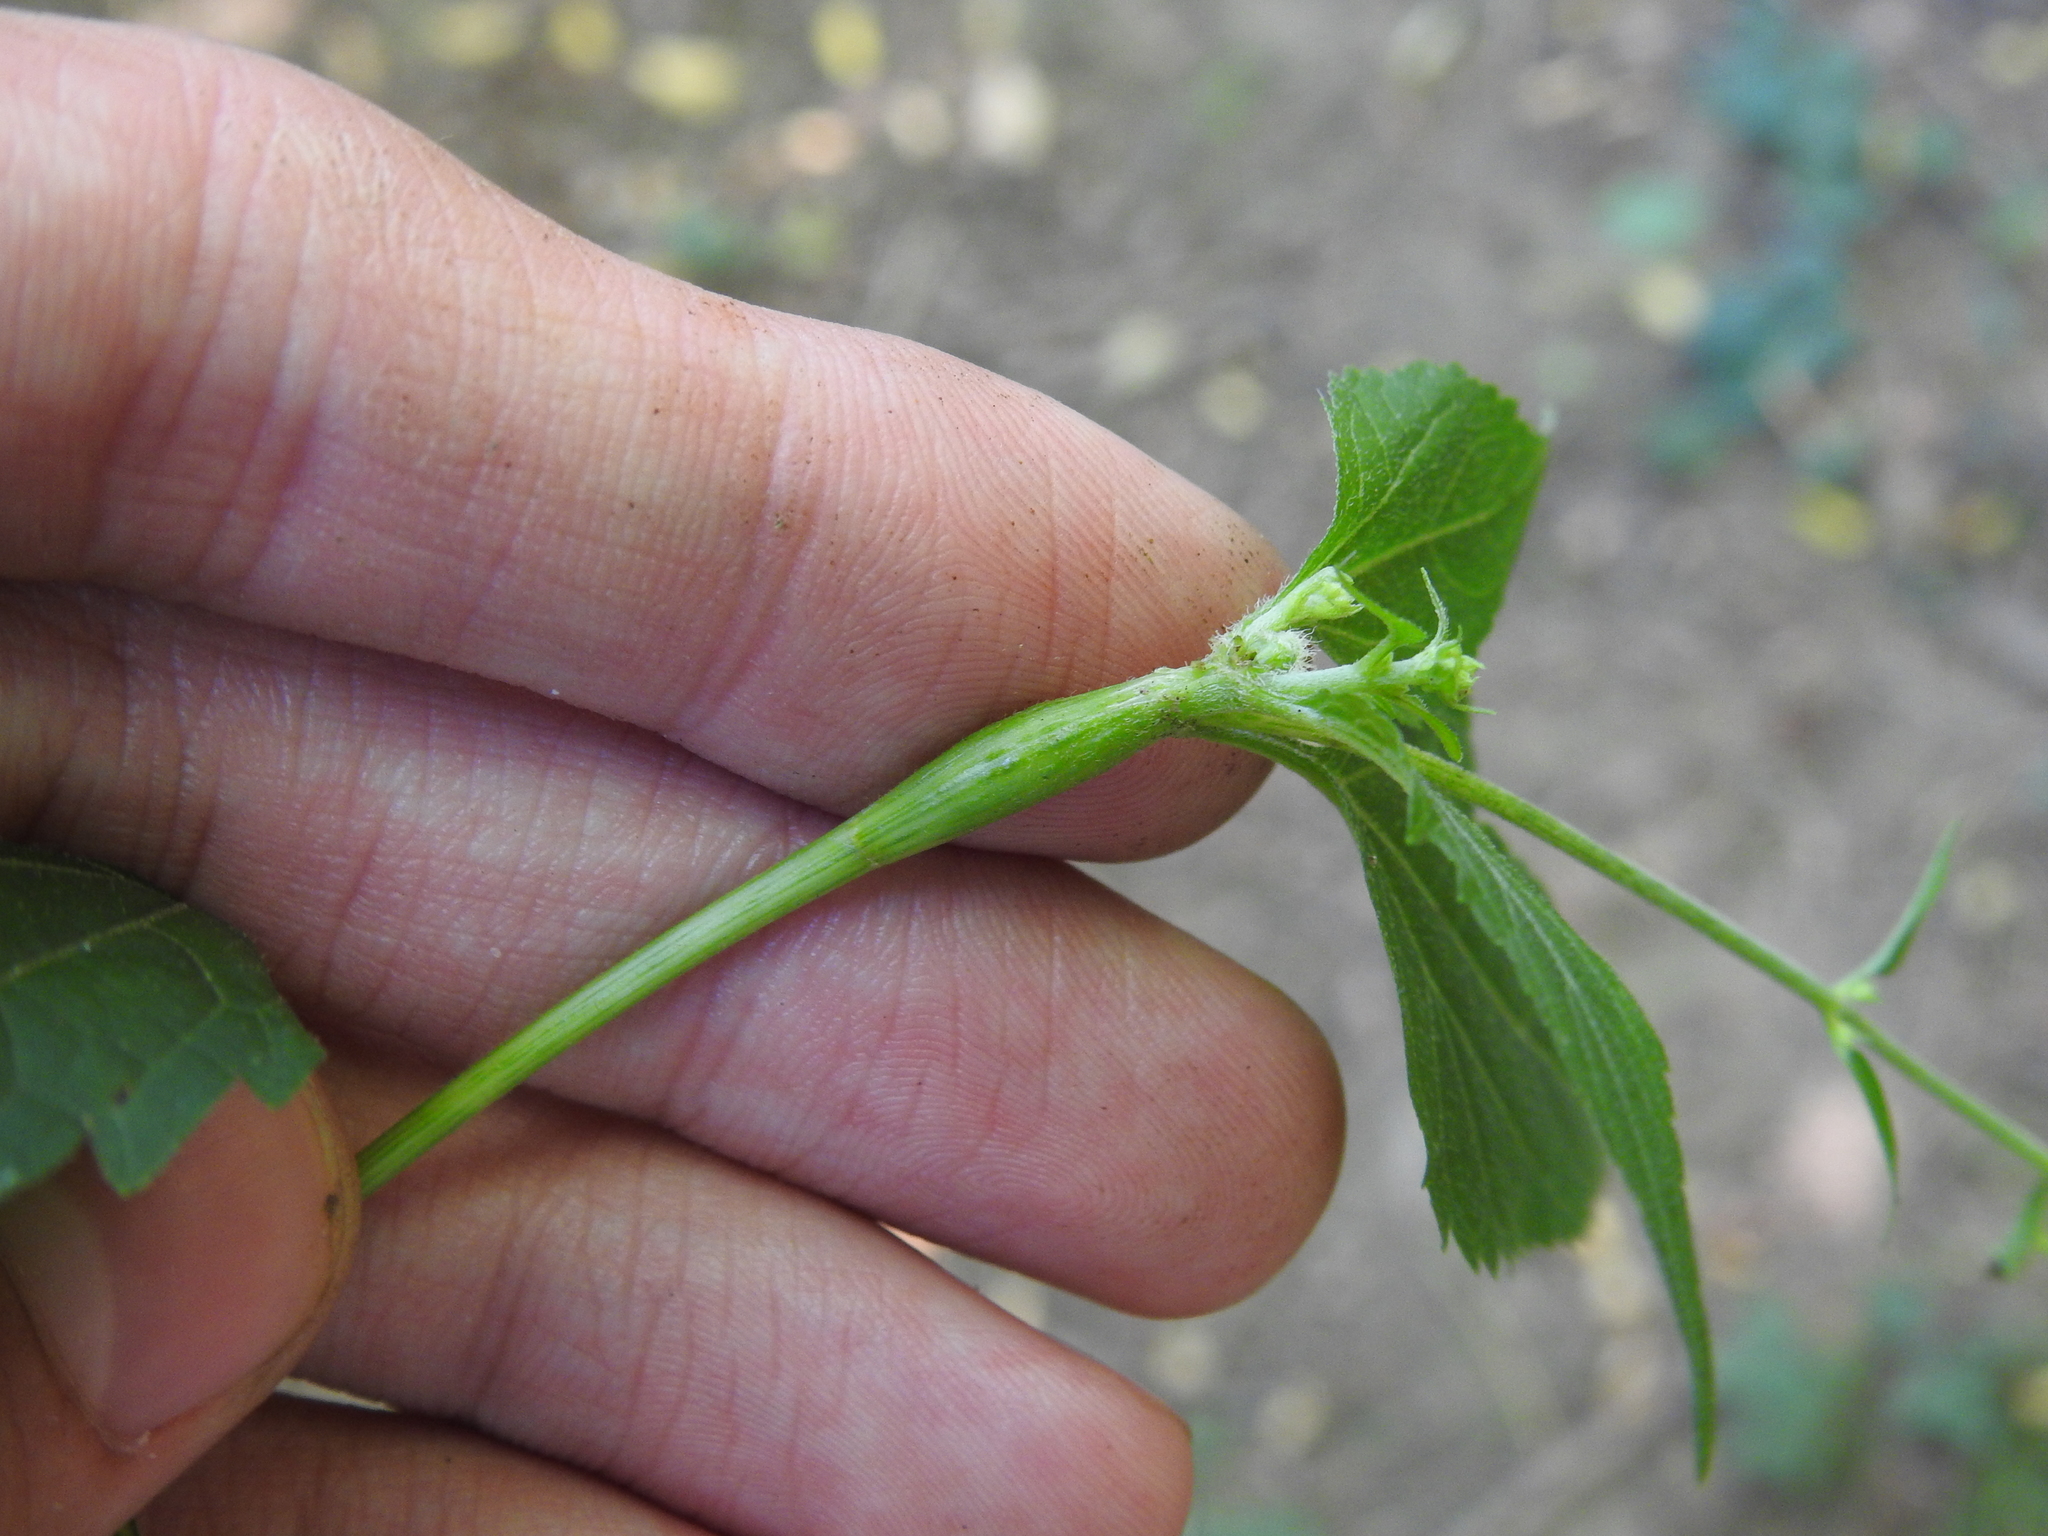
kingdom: Animalia
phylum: Arthropoda
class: Insecta
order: Diptera
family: Cecidomyiidae
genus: Neolasioptera
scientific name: Neolasioptera eupatorii
